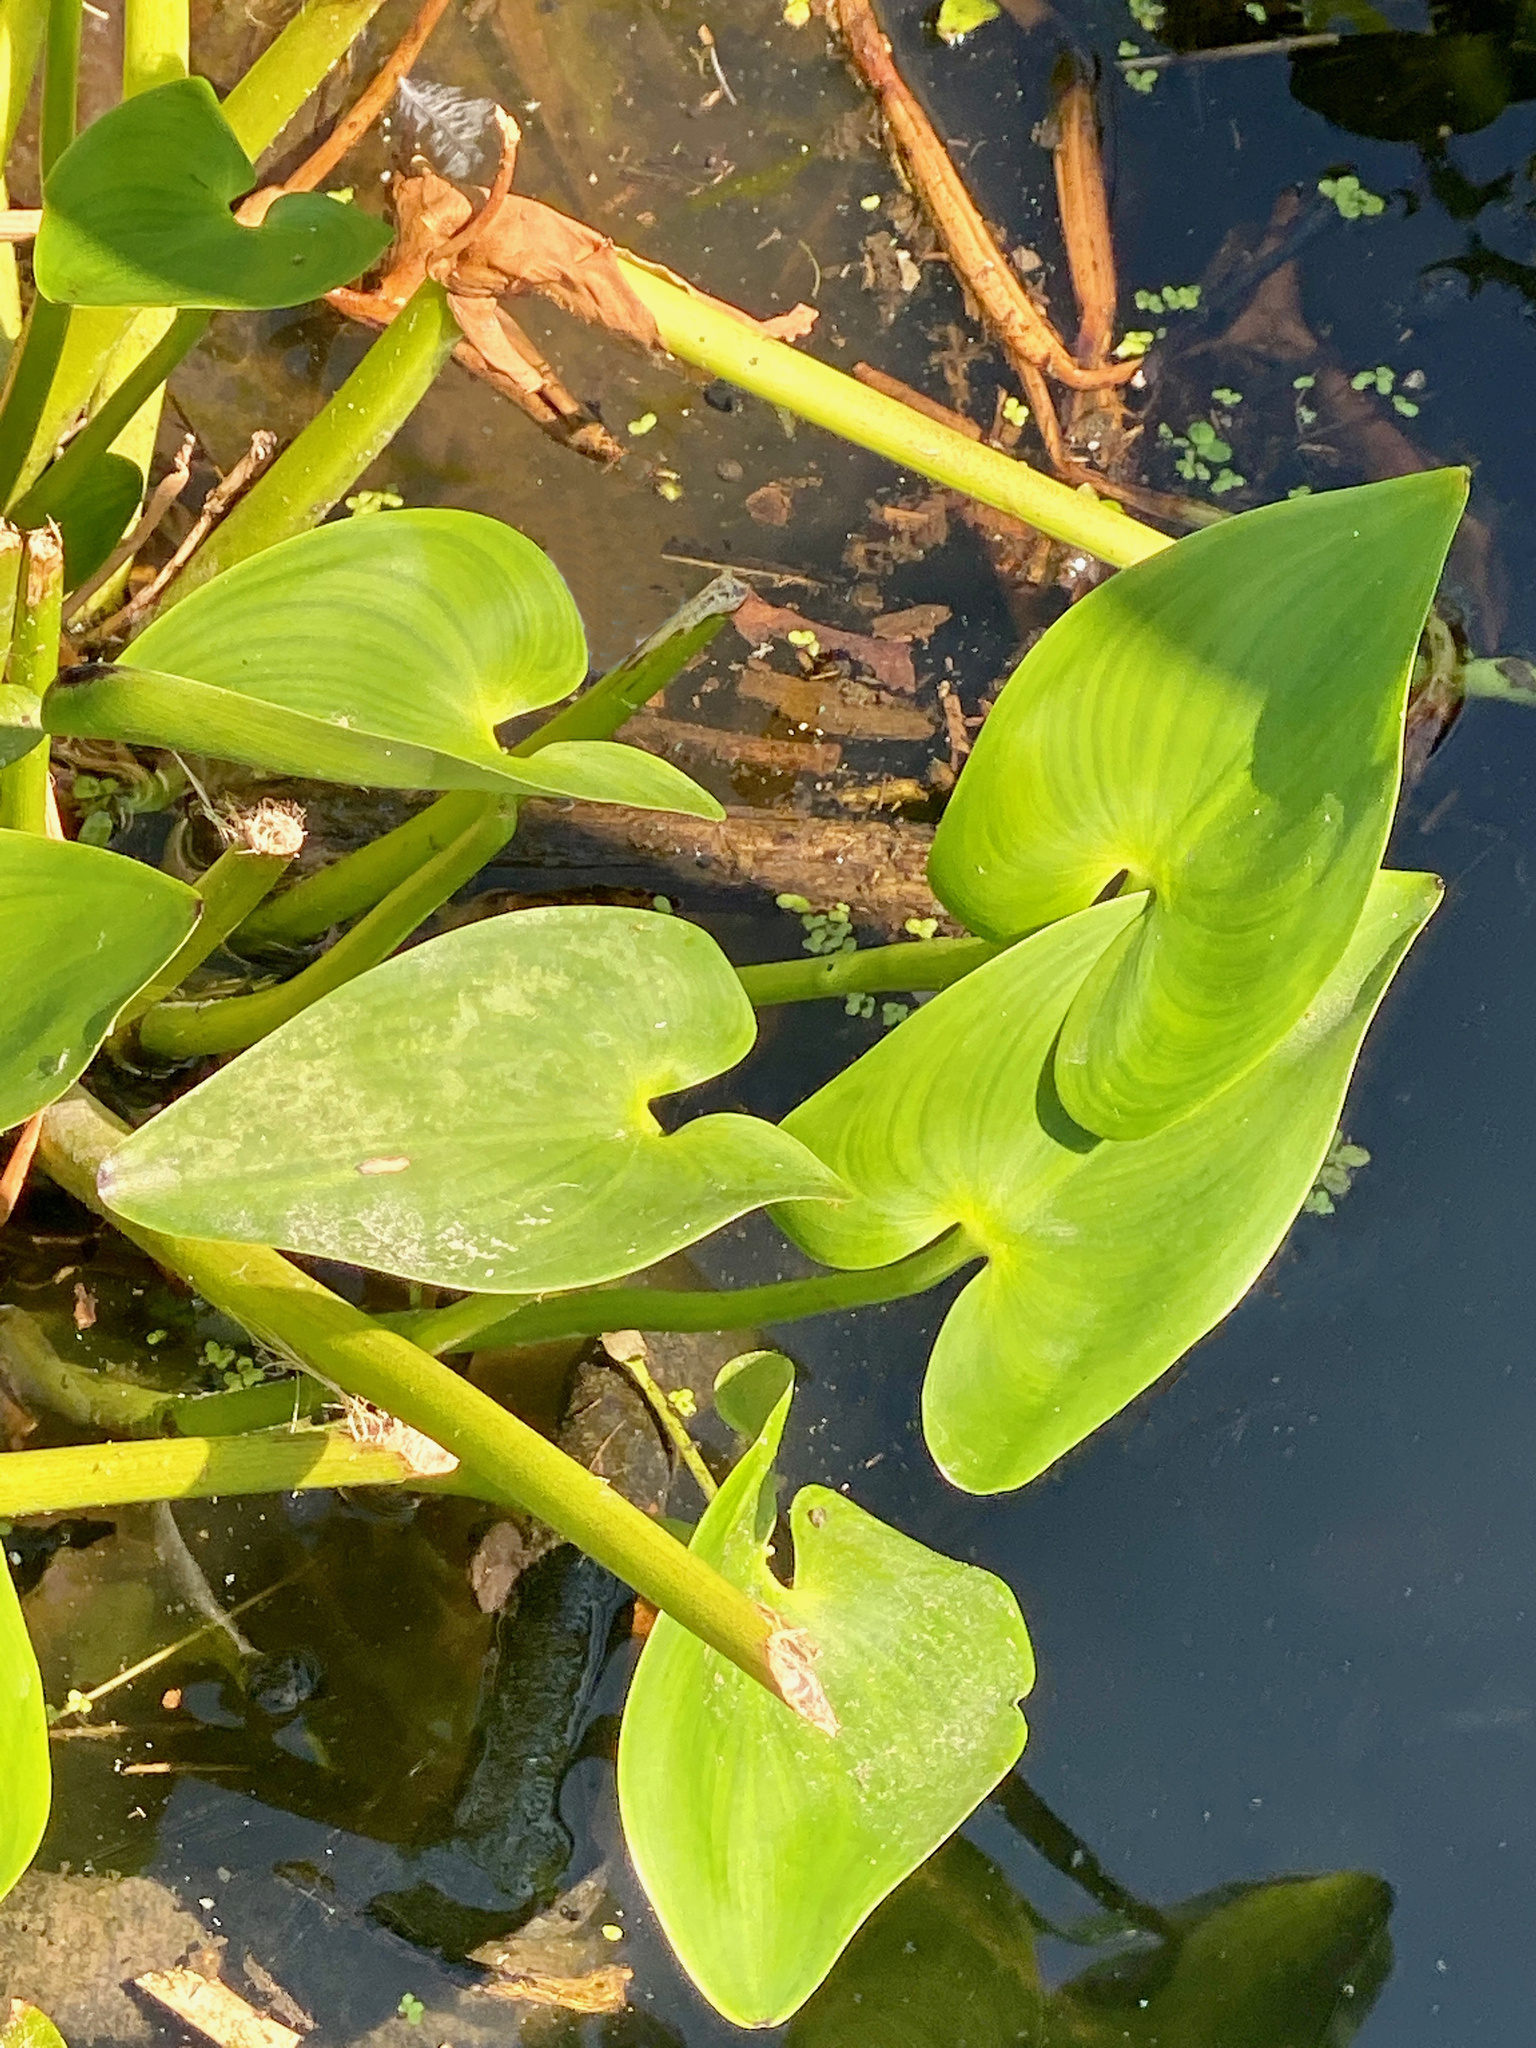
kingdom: Plantae
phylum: Tracheophyta
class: Liliopsida
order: Commelinales
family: Pontederiaceae
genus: Pontederia
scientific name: Pontederia cordata
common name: Pickerelweed
